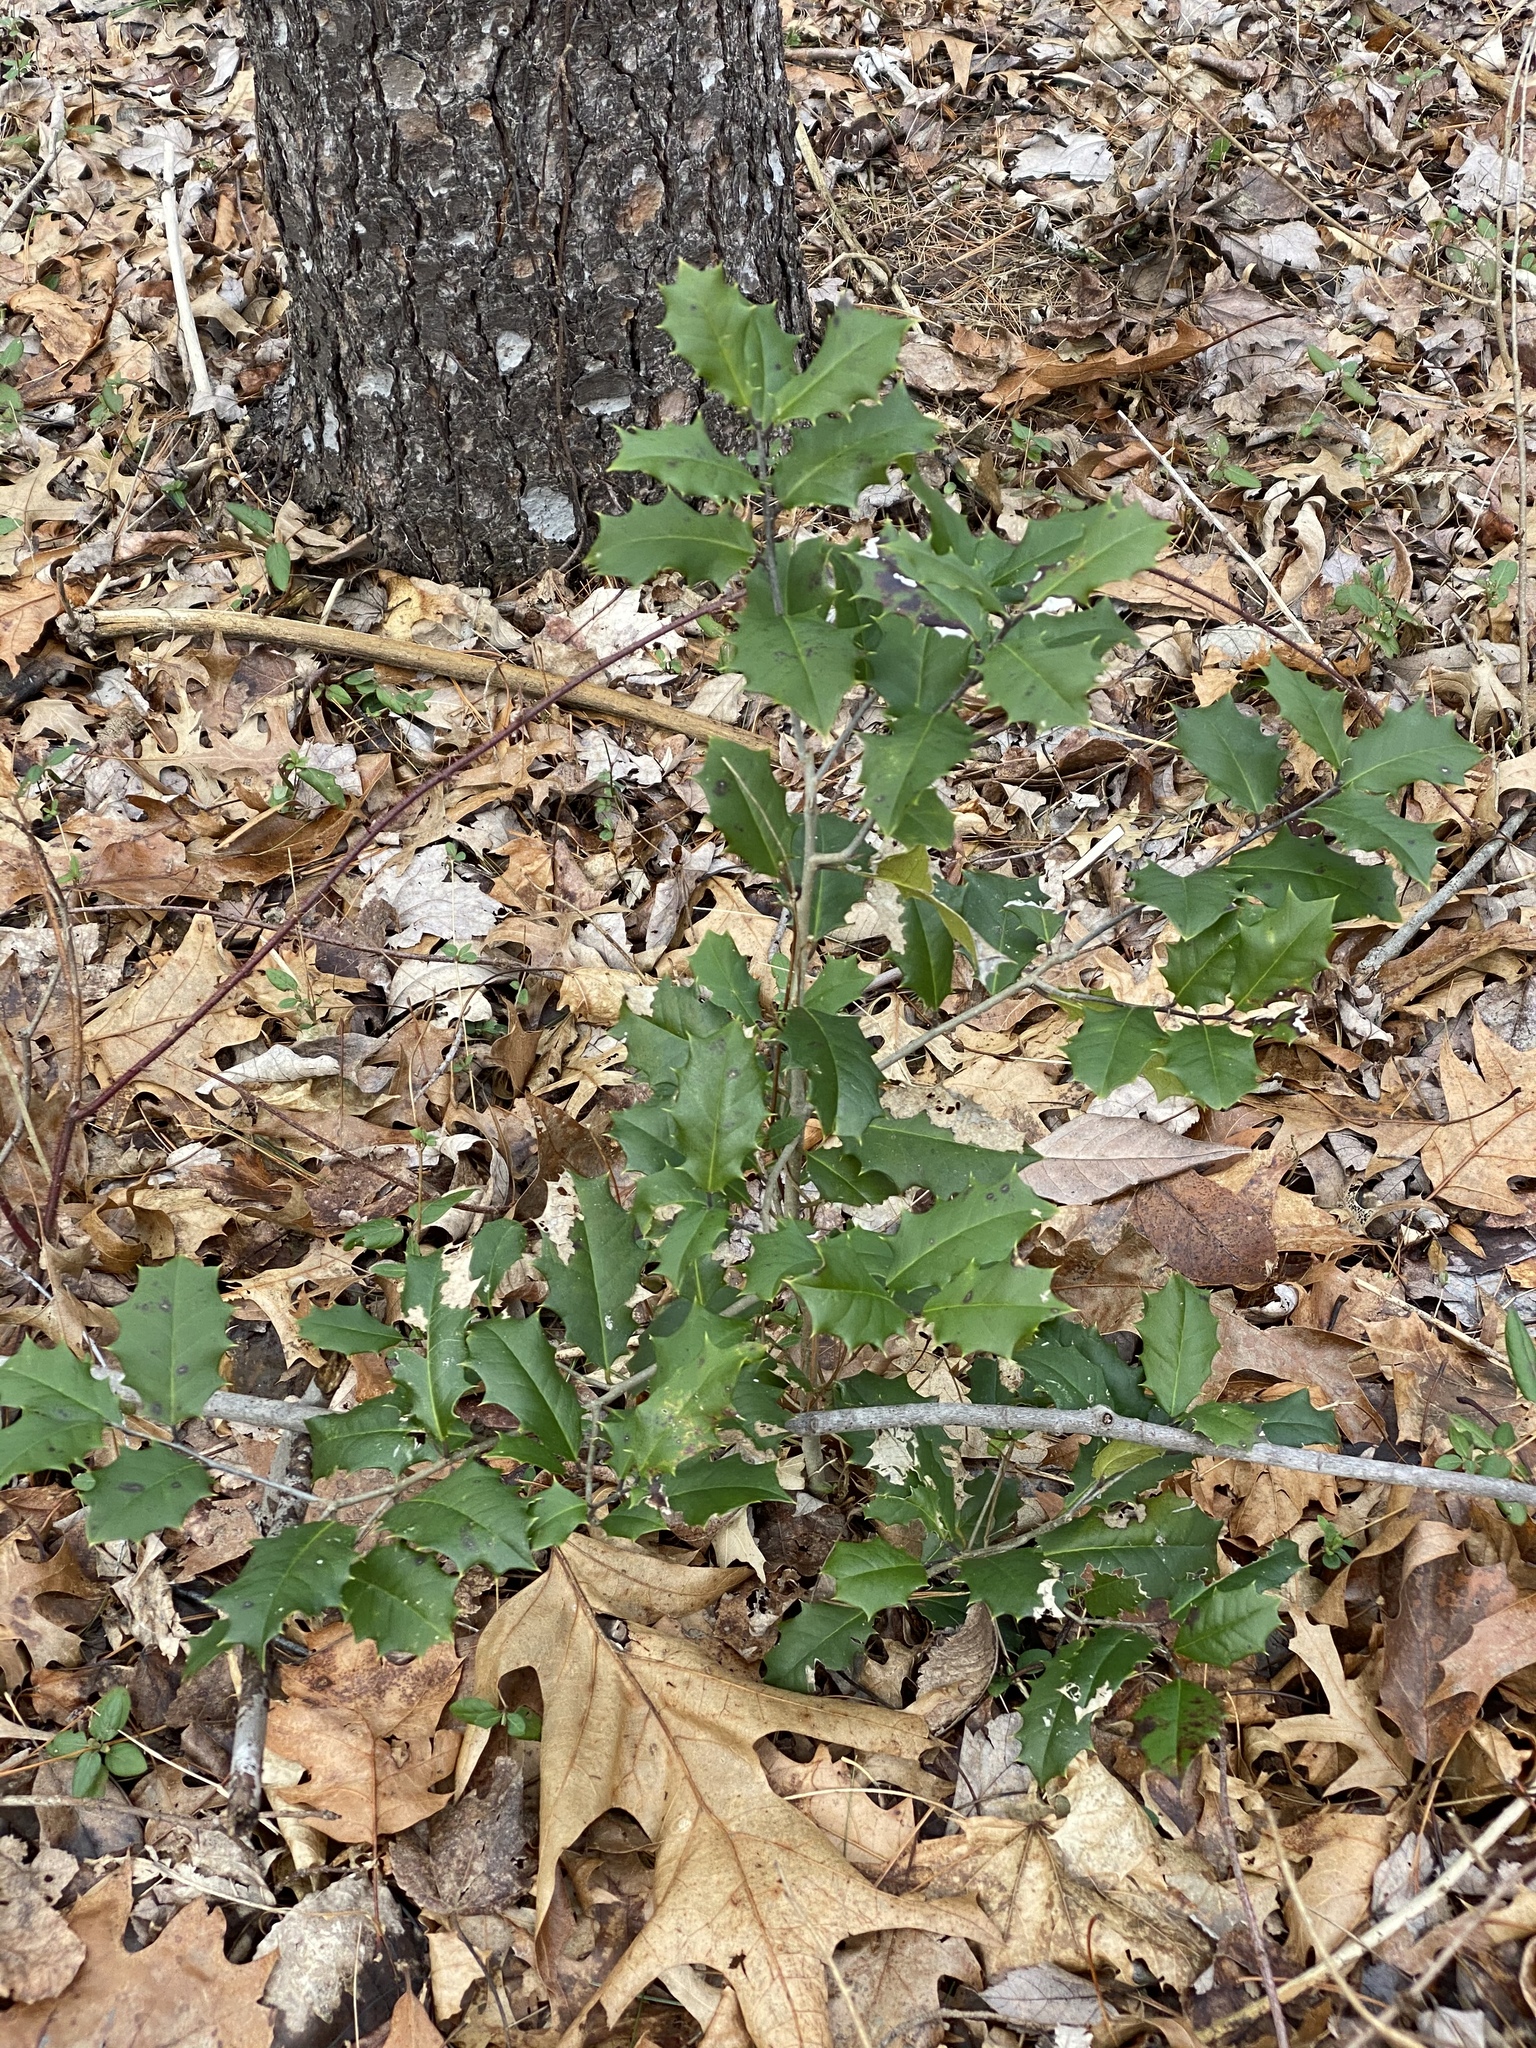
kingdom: Plantae
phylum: Tracheophyta
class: Magnoliopsida
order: Aquifoliales
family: Aquifoliaceae
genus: Ilex
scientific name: Ilex opaca
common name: American holly
